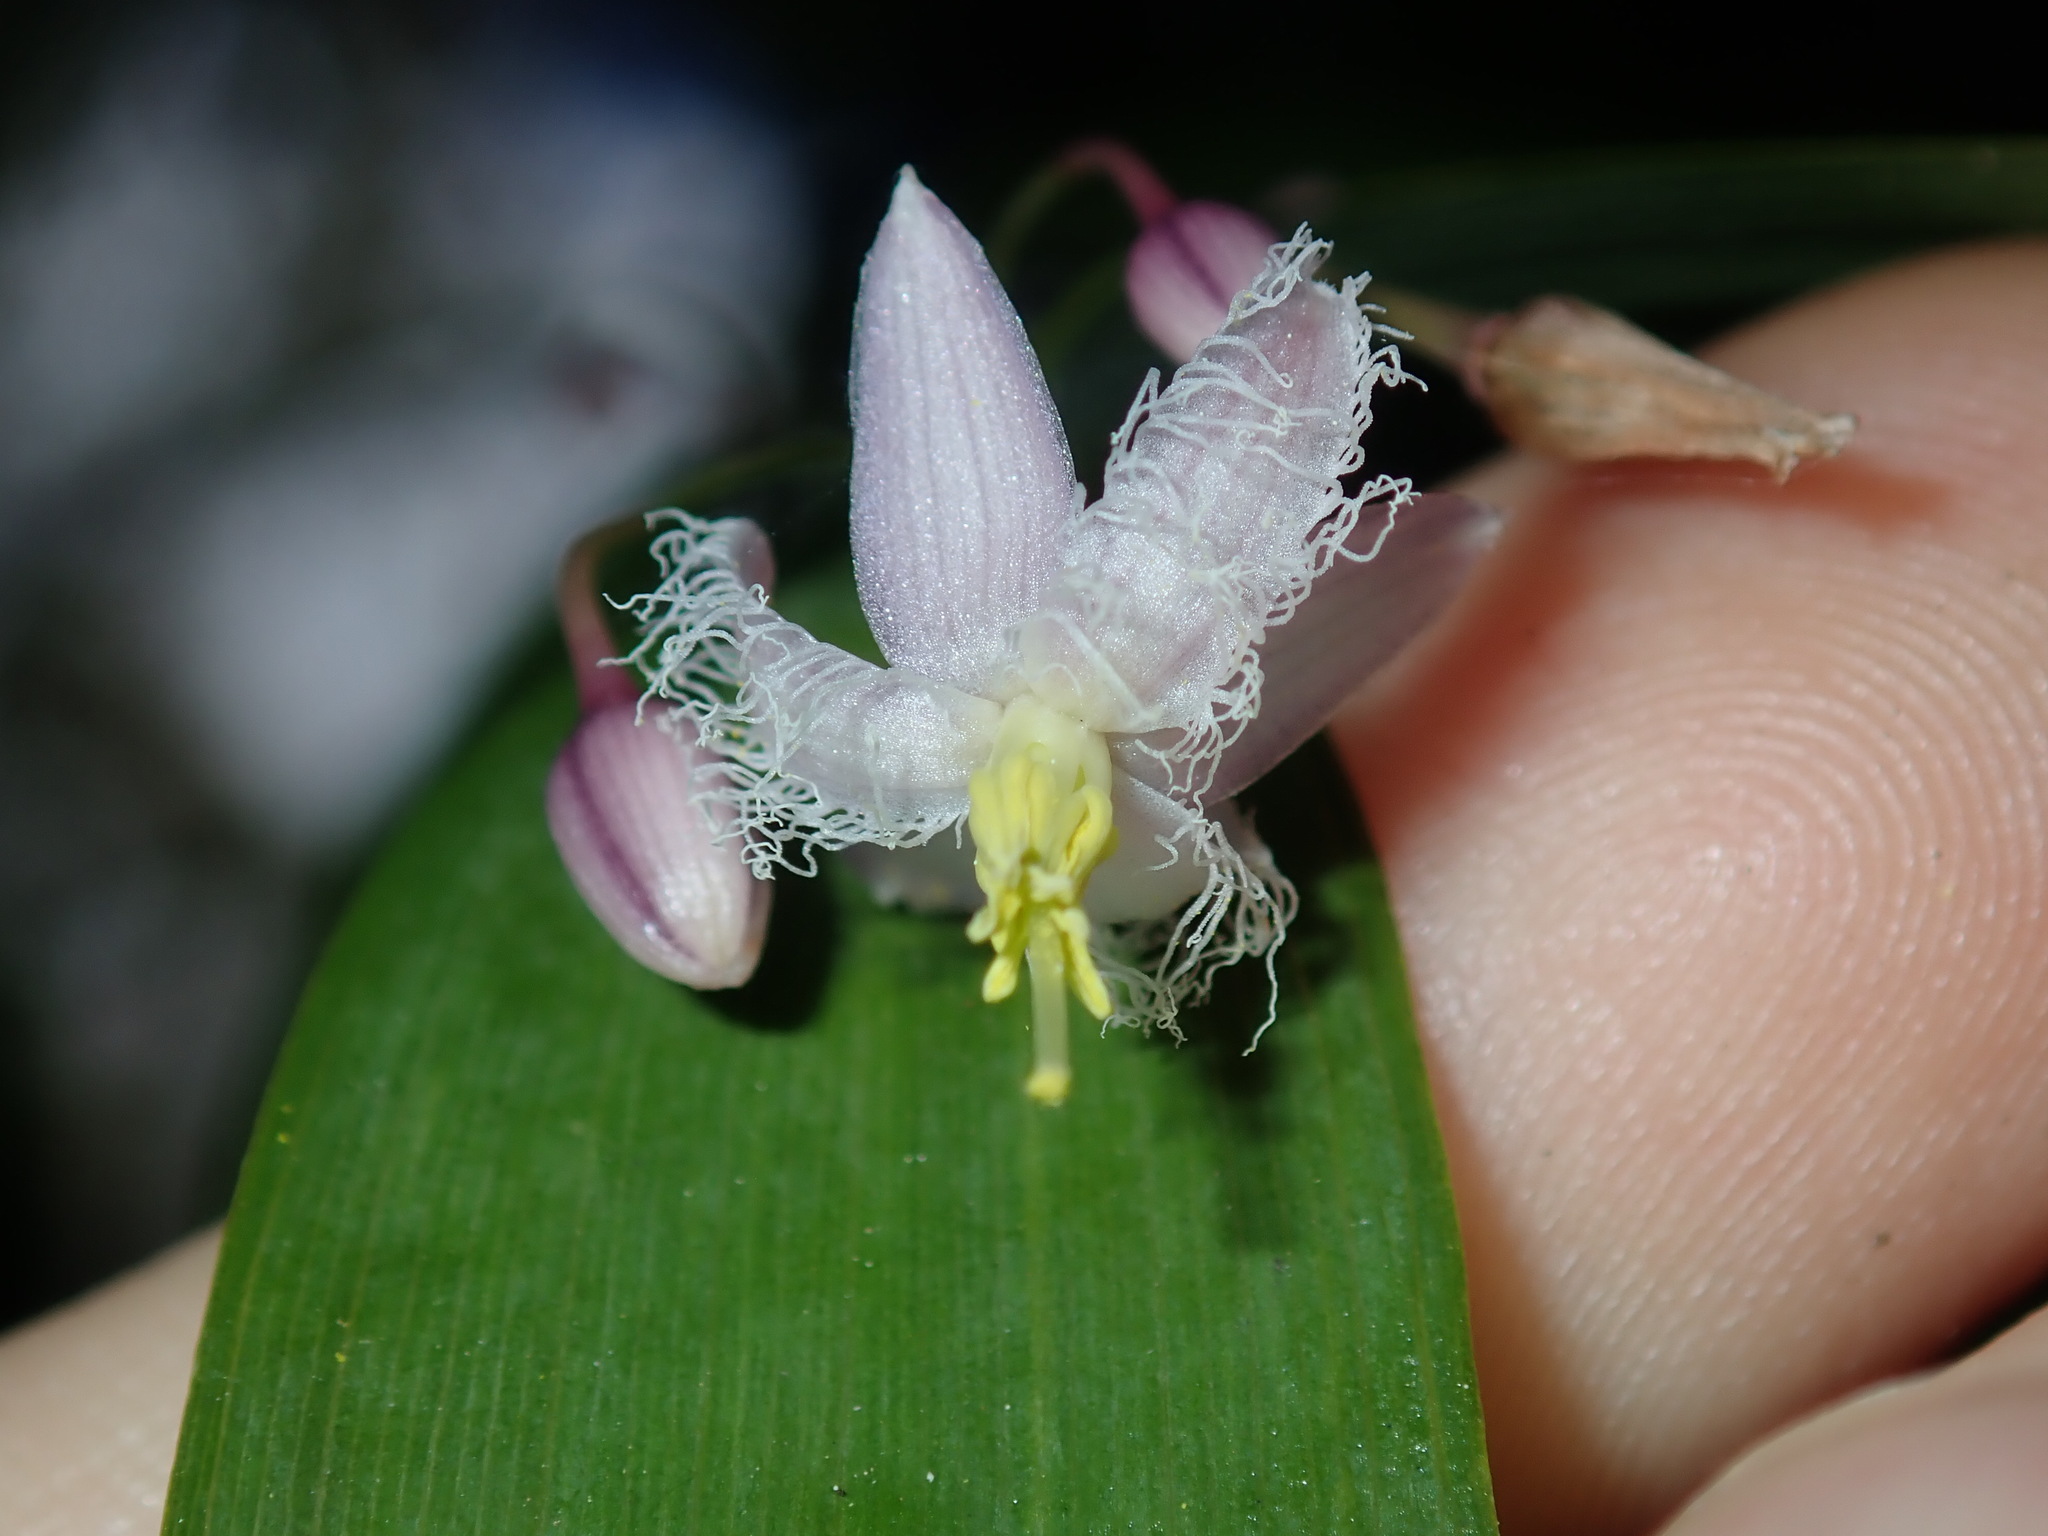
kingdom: Plantae
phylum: Tracheophyta
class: Liliopsida
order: Asparagales
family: Asparagaceae
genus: Eustrephus
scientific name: Eustrephus latifolius
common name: Orangevine
